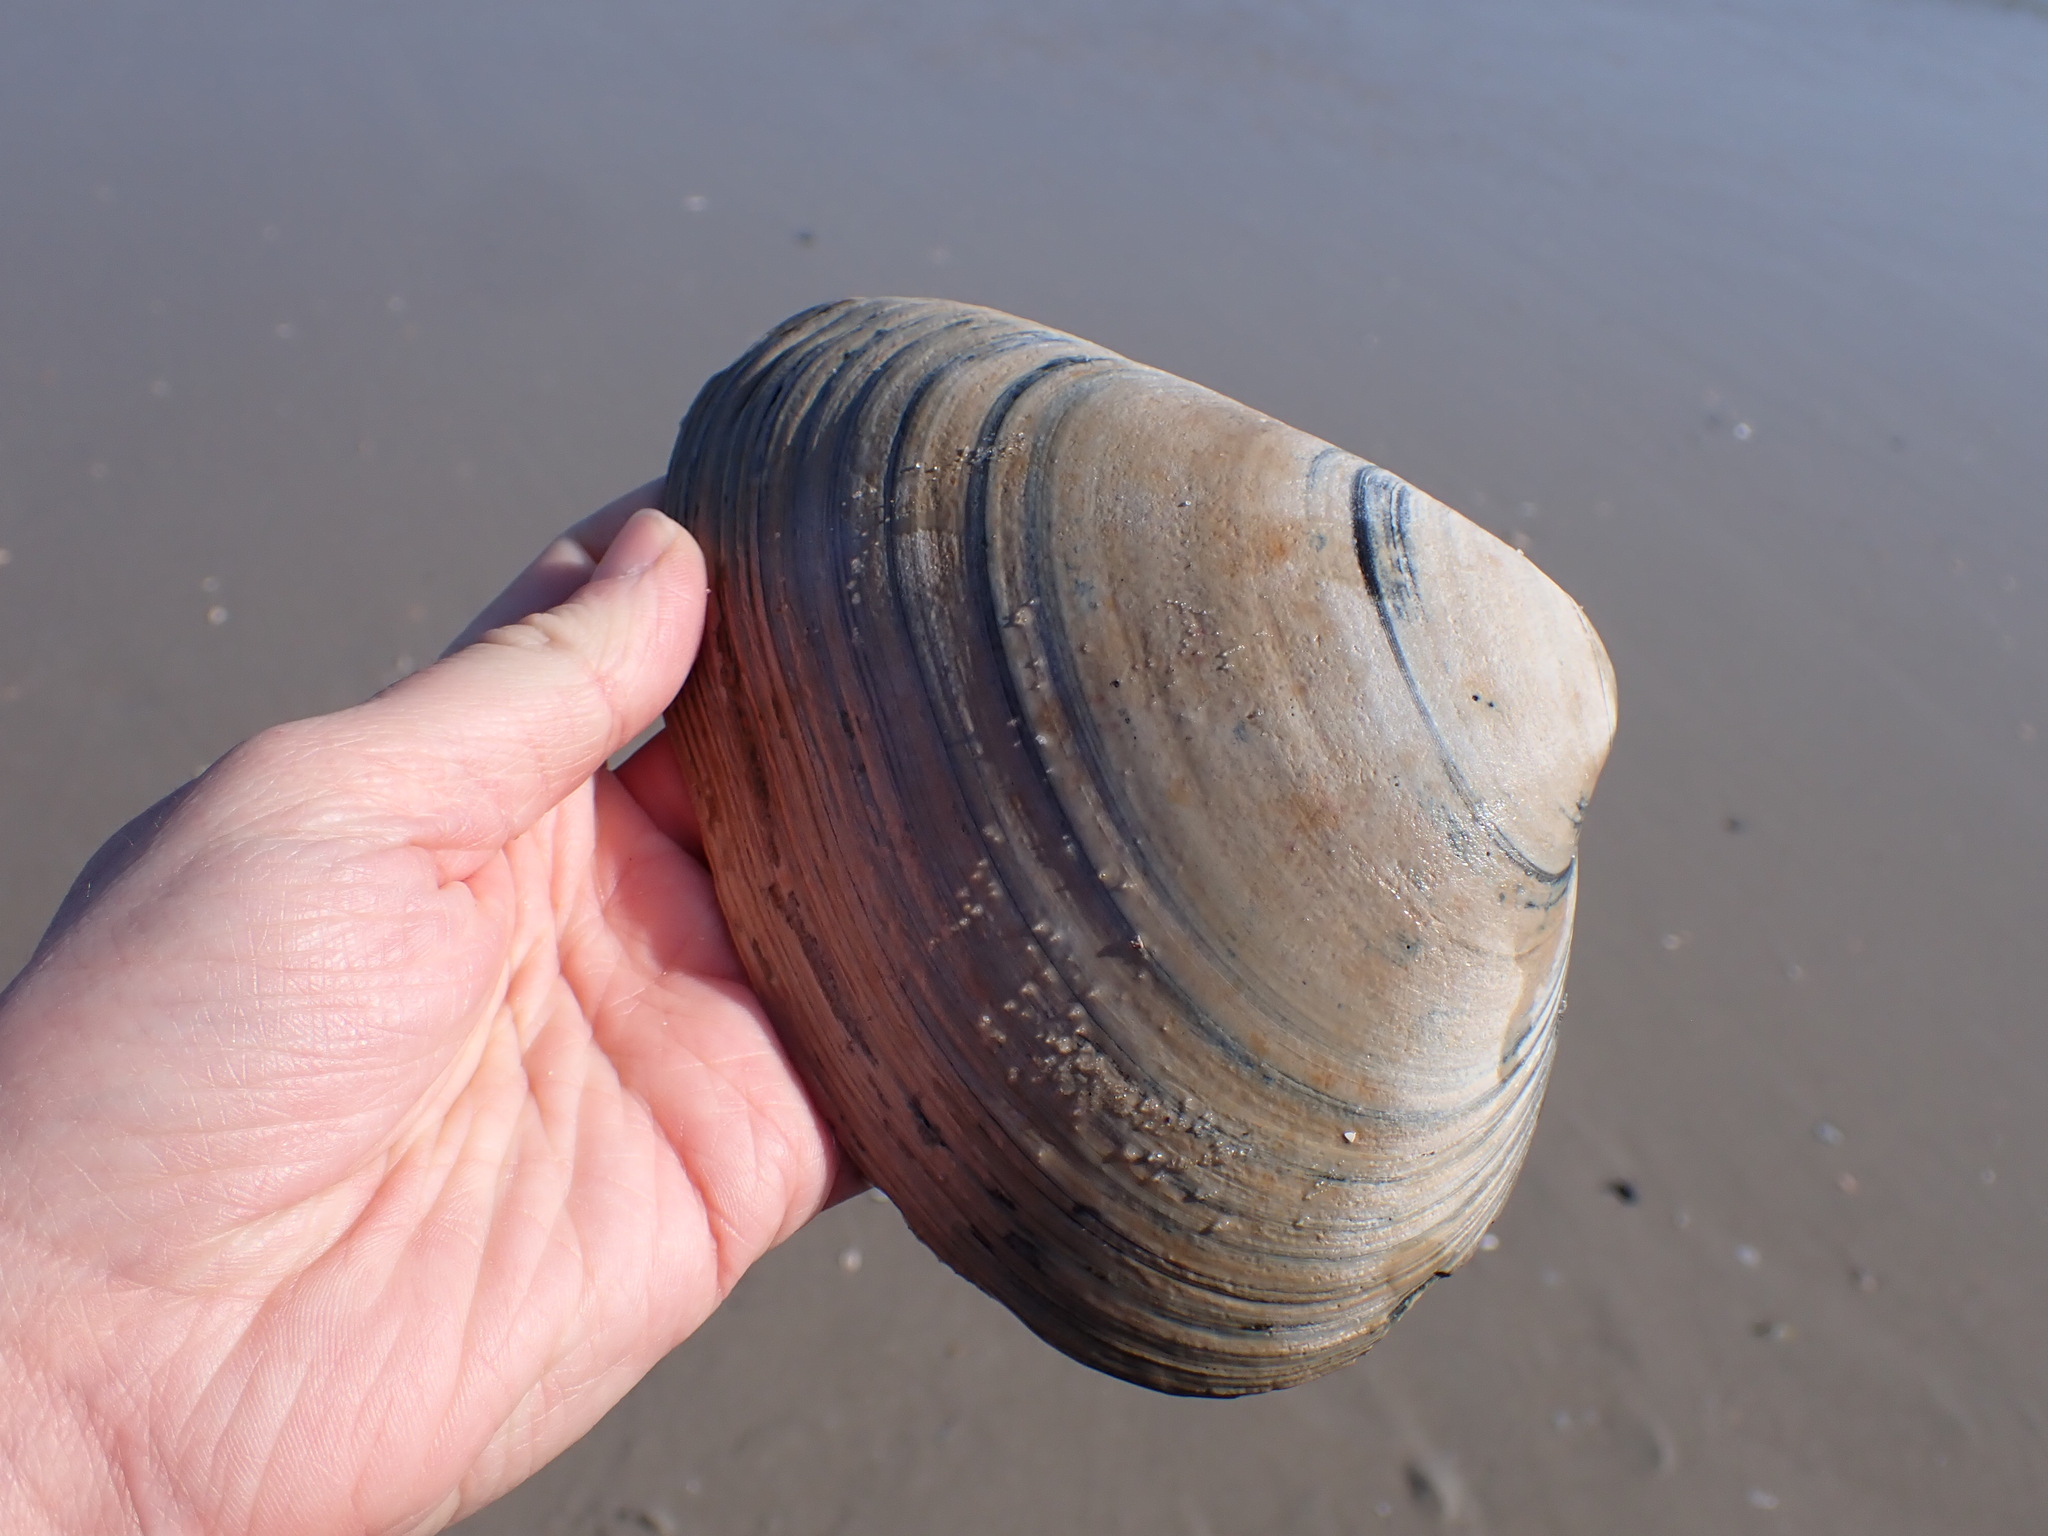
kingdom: Animalia
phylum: Mollusca
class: Bivalvia
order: Venerida
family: Mactridae
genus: Spisula
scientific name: Spisula solidissima
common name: Atlantic surf clam
